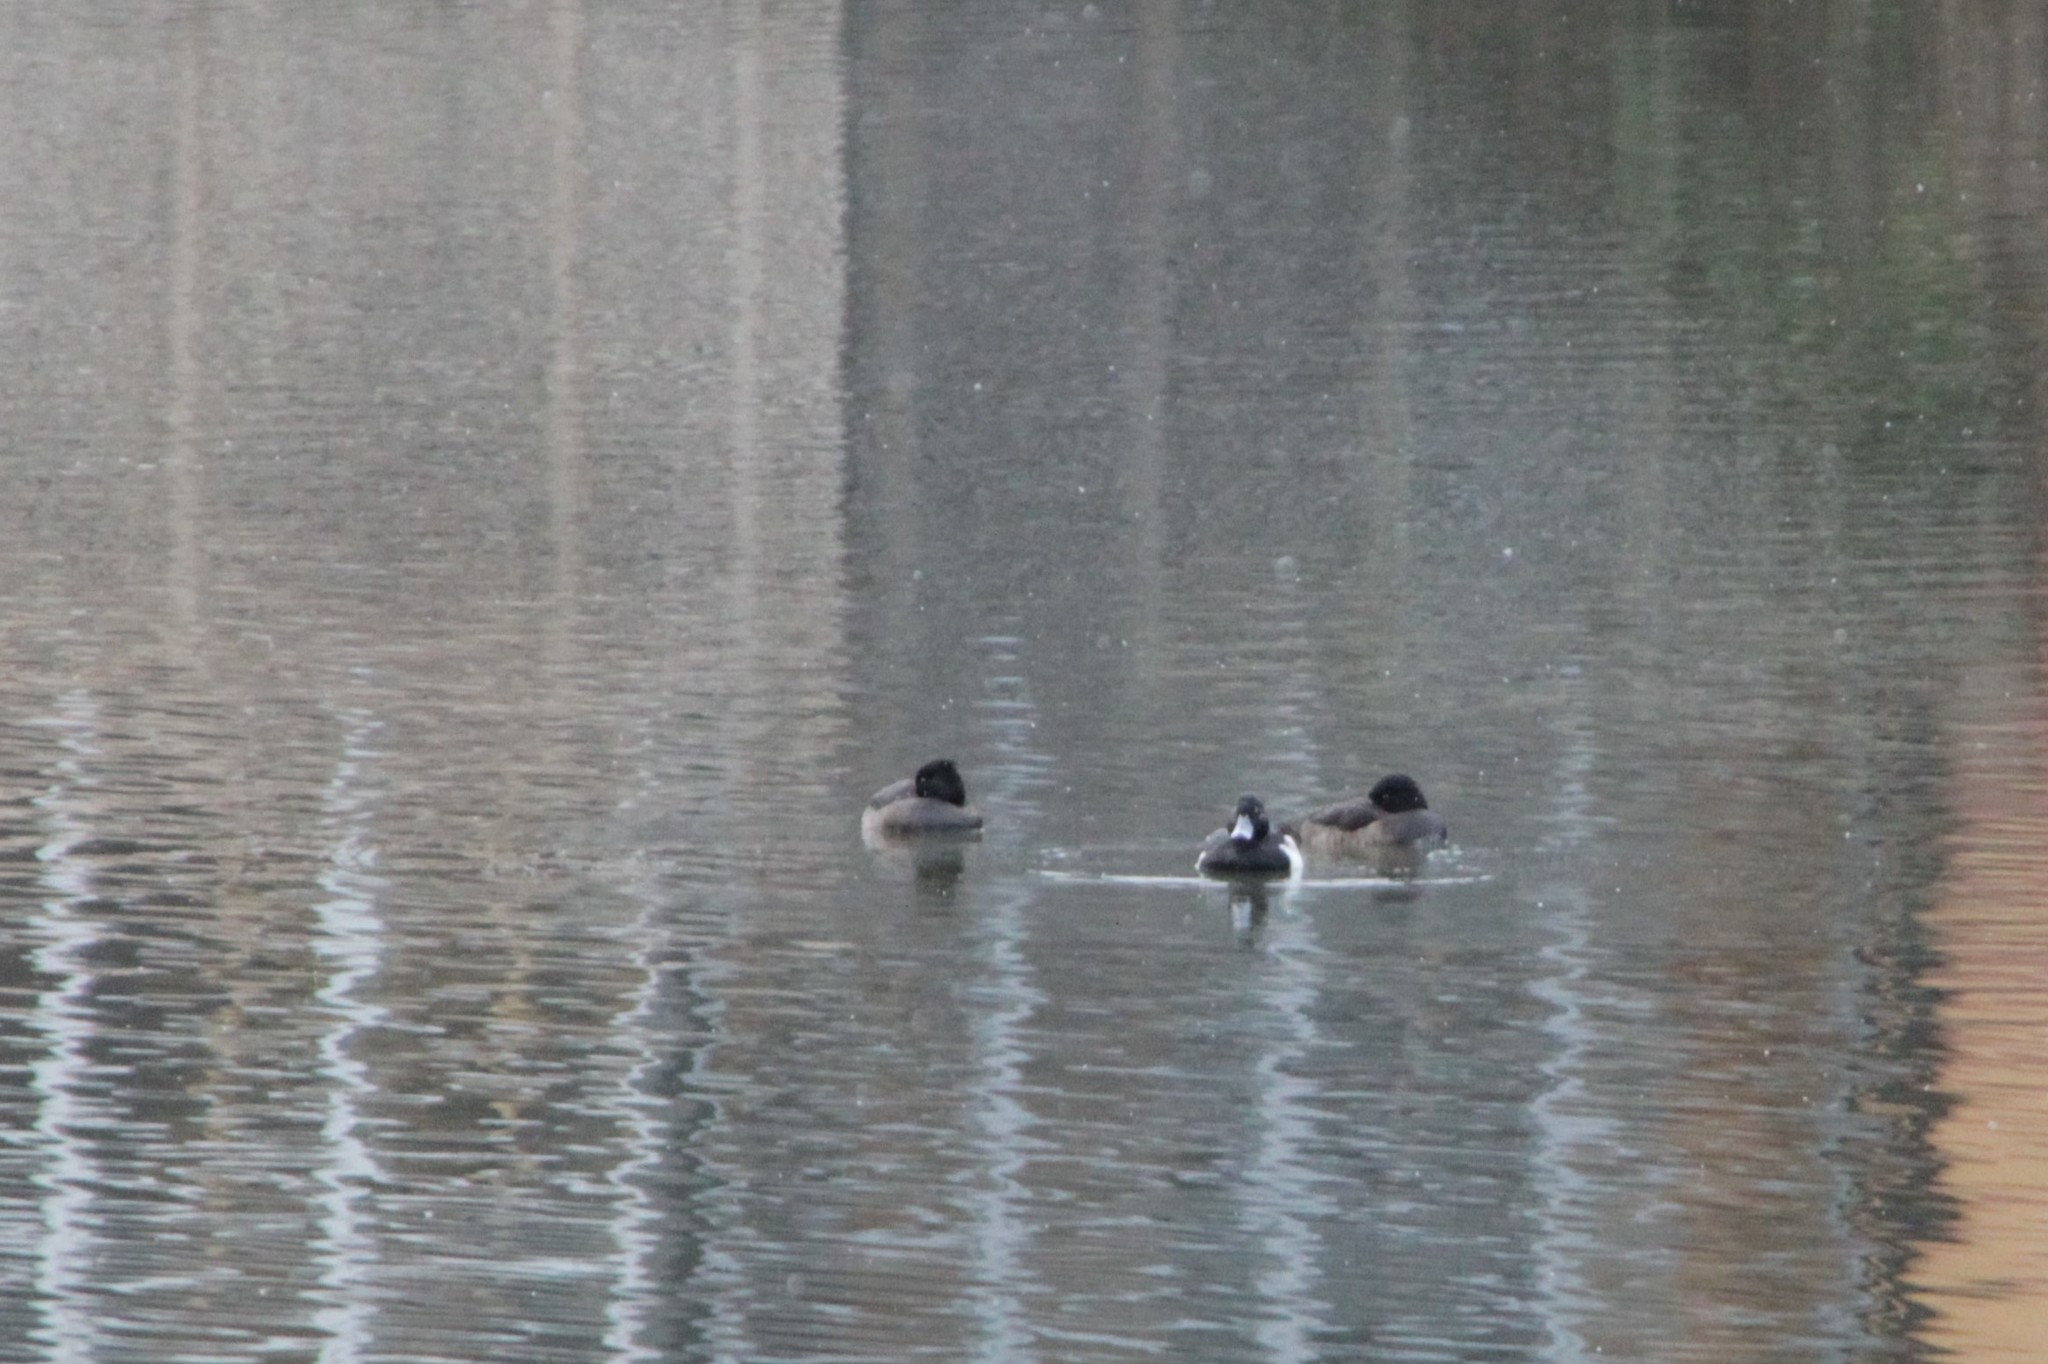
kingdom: Animalia
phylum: Chordata
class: Aves
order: Anseriformes
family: Anatidae
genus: Aythya
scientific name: Aythya fuligula
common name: Tufted duck
